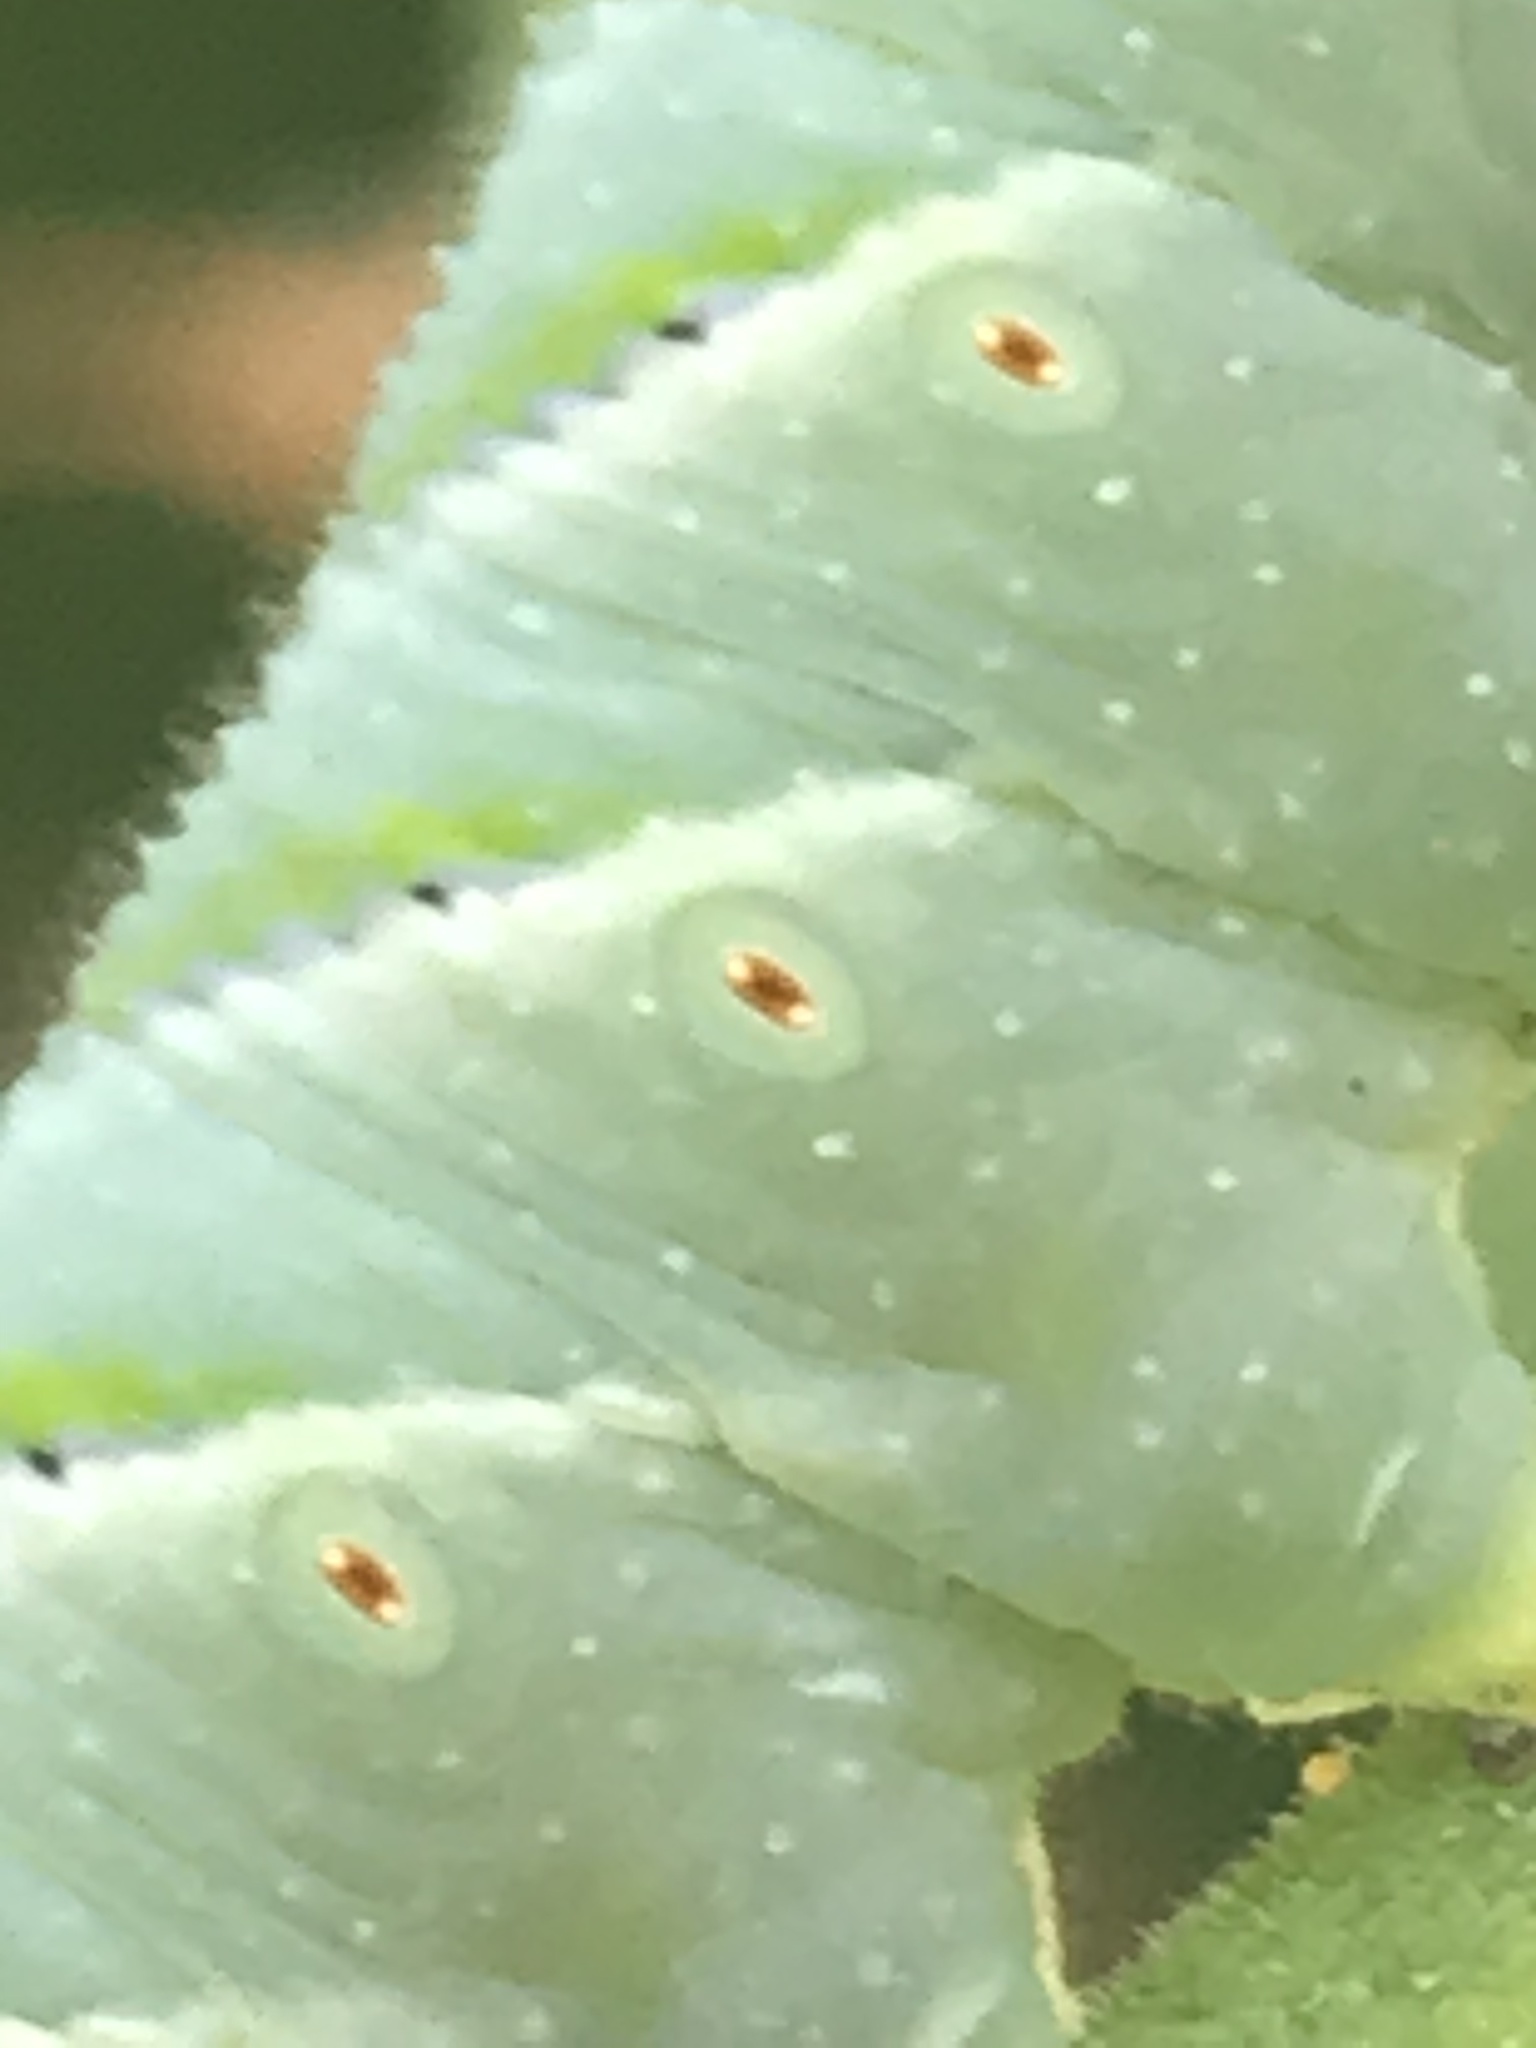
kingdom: Animalia
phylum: Arthropoda
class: Insecta
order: Lepidoptera
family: Sphingidae
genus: Manduca
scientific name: Manduca sexta
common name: Carolina sphinx
